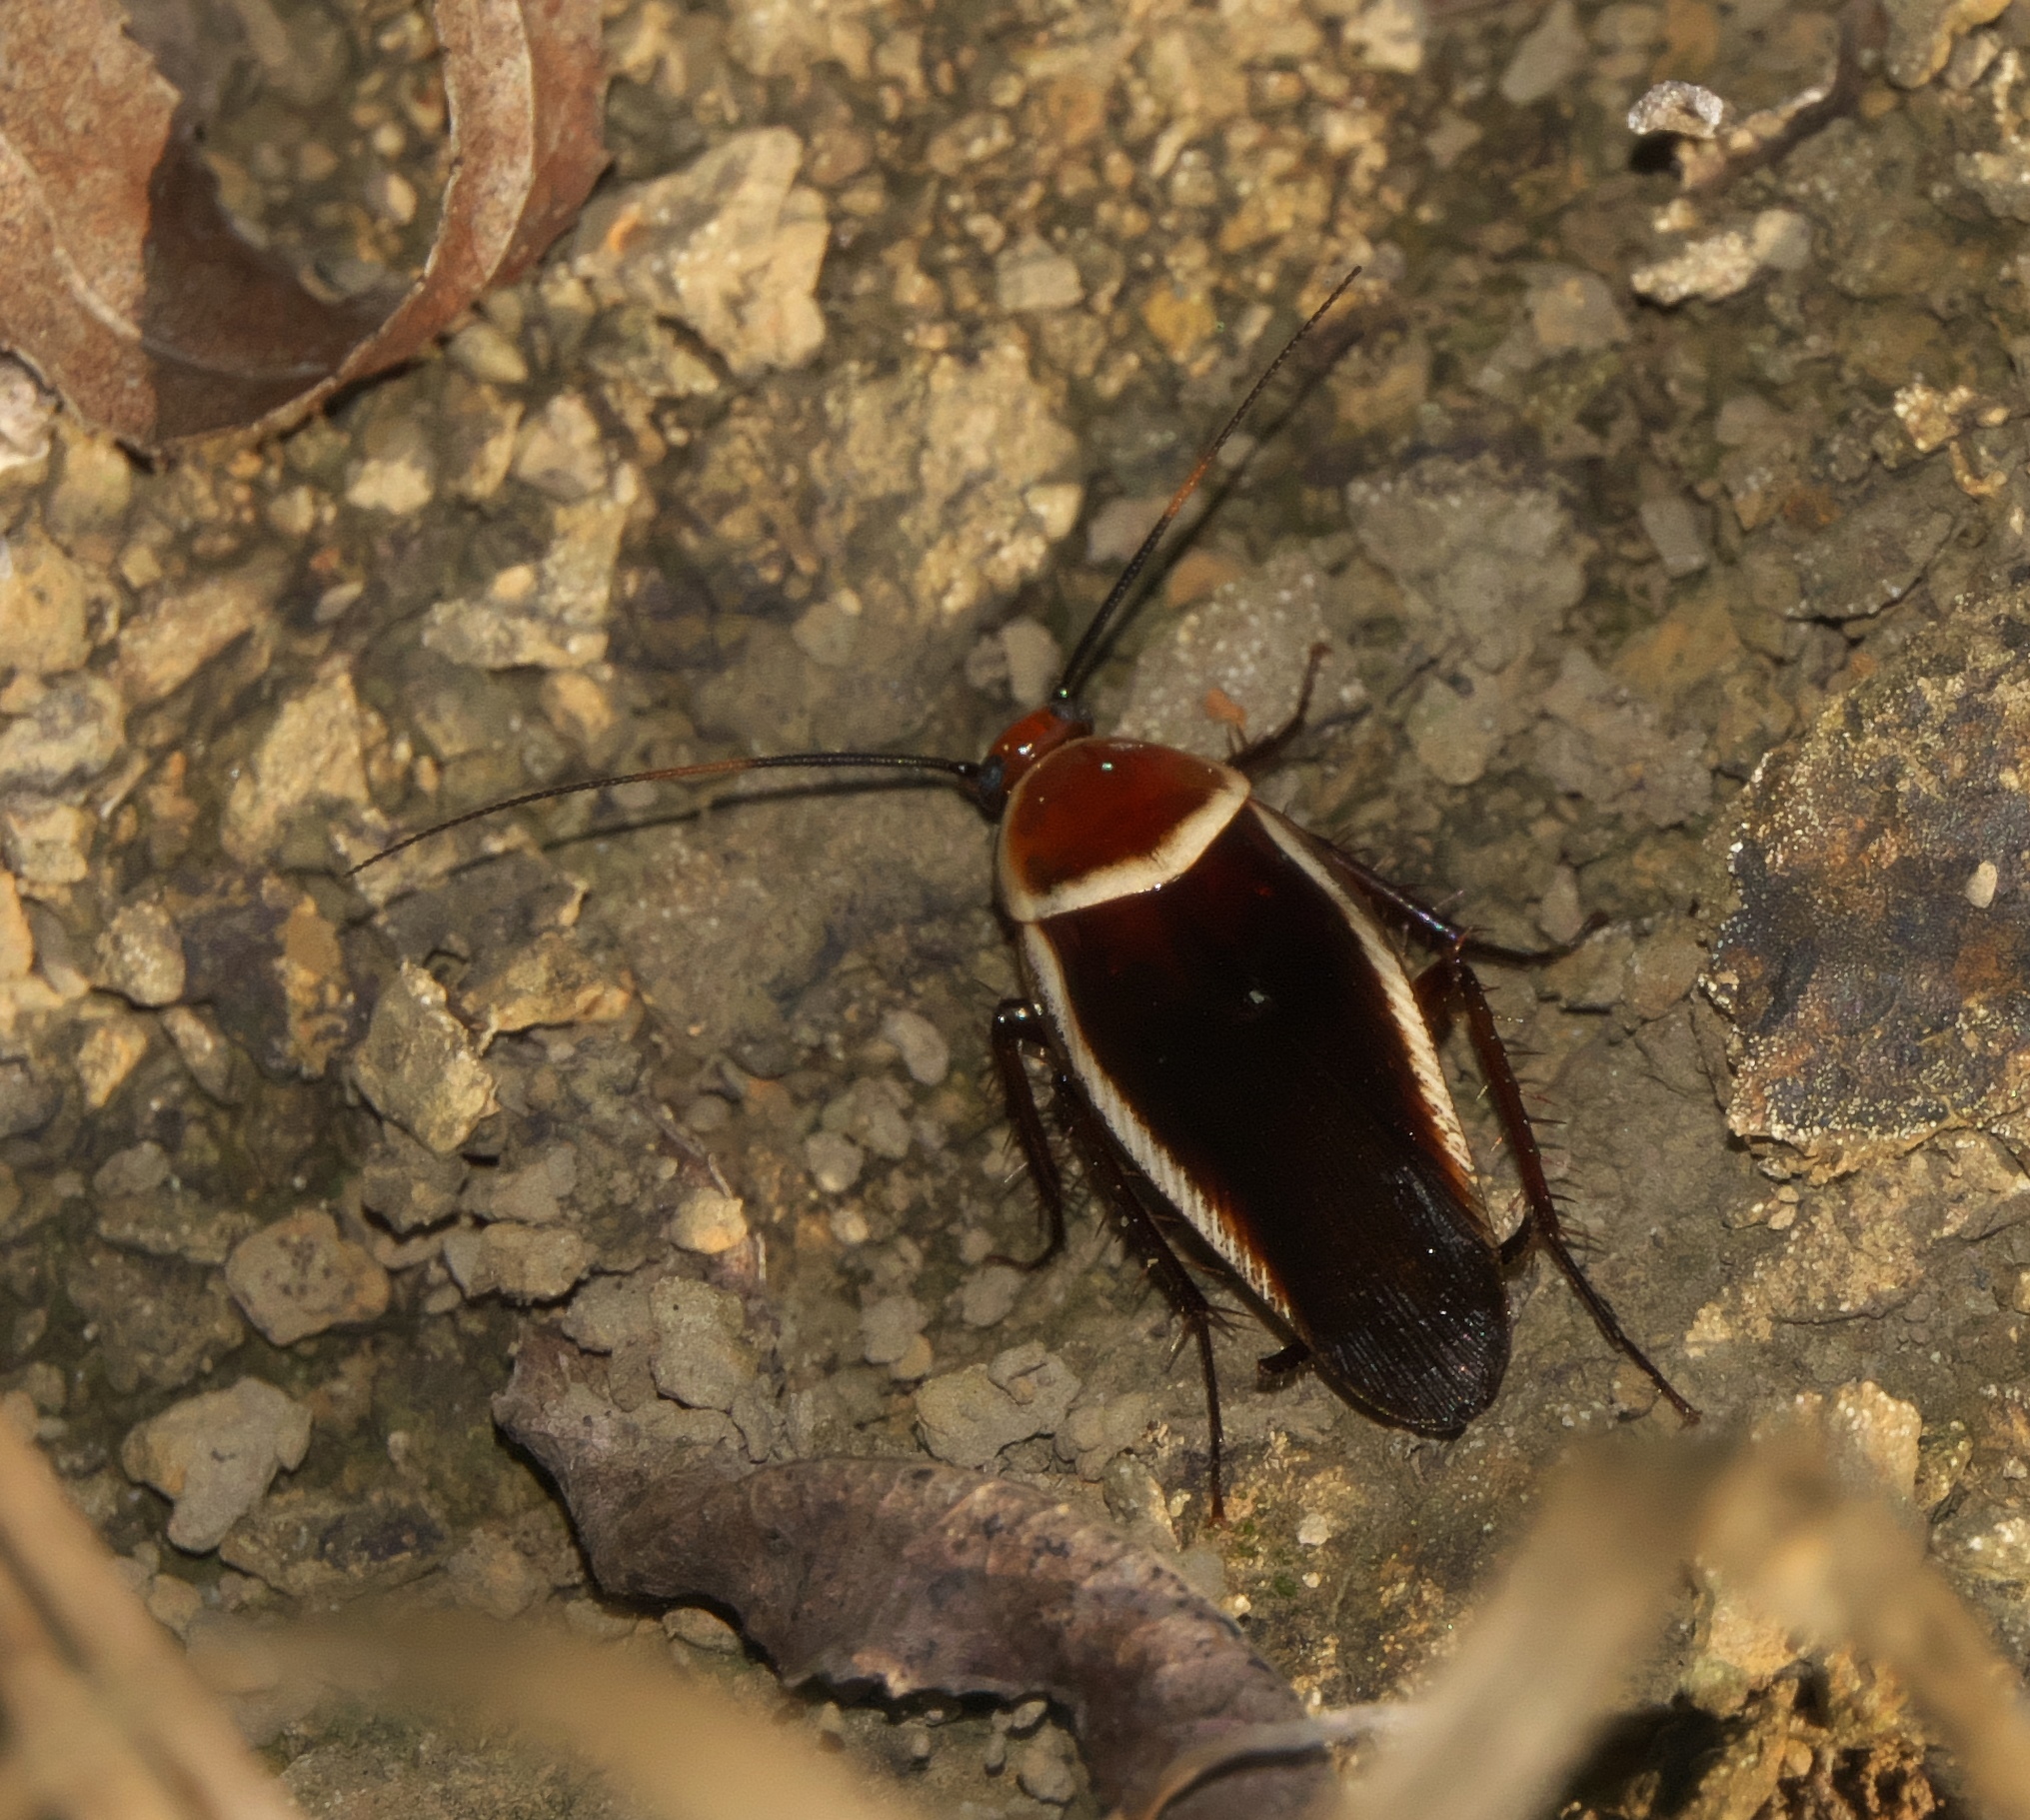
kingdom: Animalia
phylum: Arthropoda
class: Insecta
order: Blattodea
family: Ectobiidae
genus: Pseudomops
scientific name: Pseudomops septentrionalis
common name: Pale-bordered field cockroach
